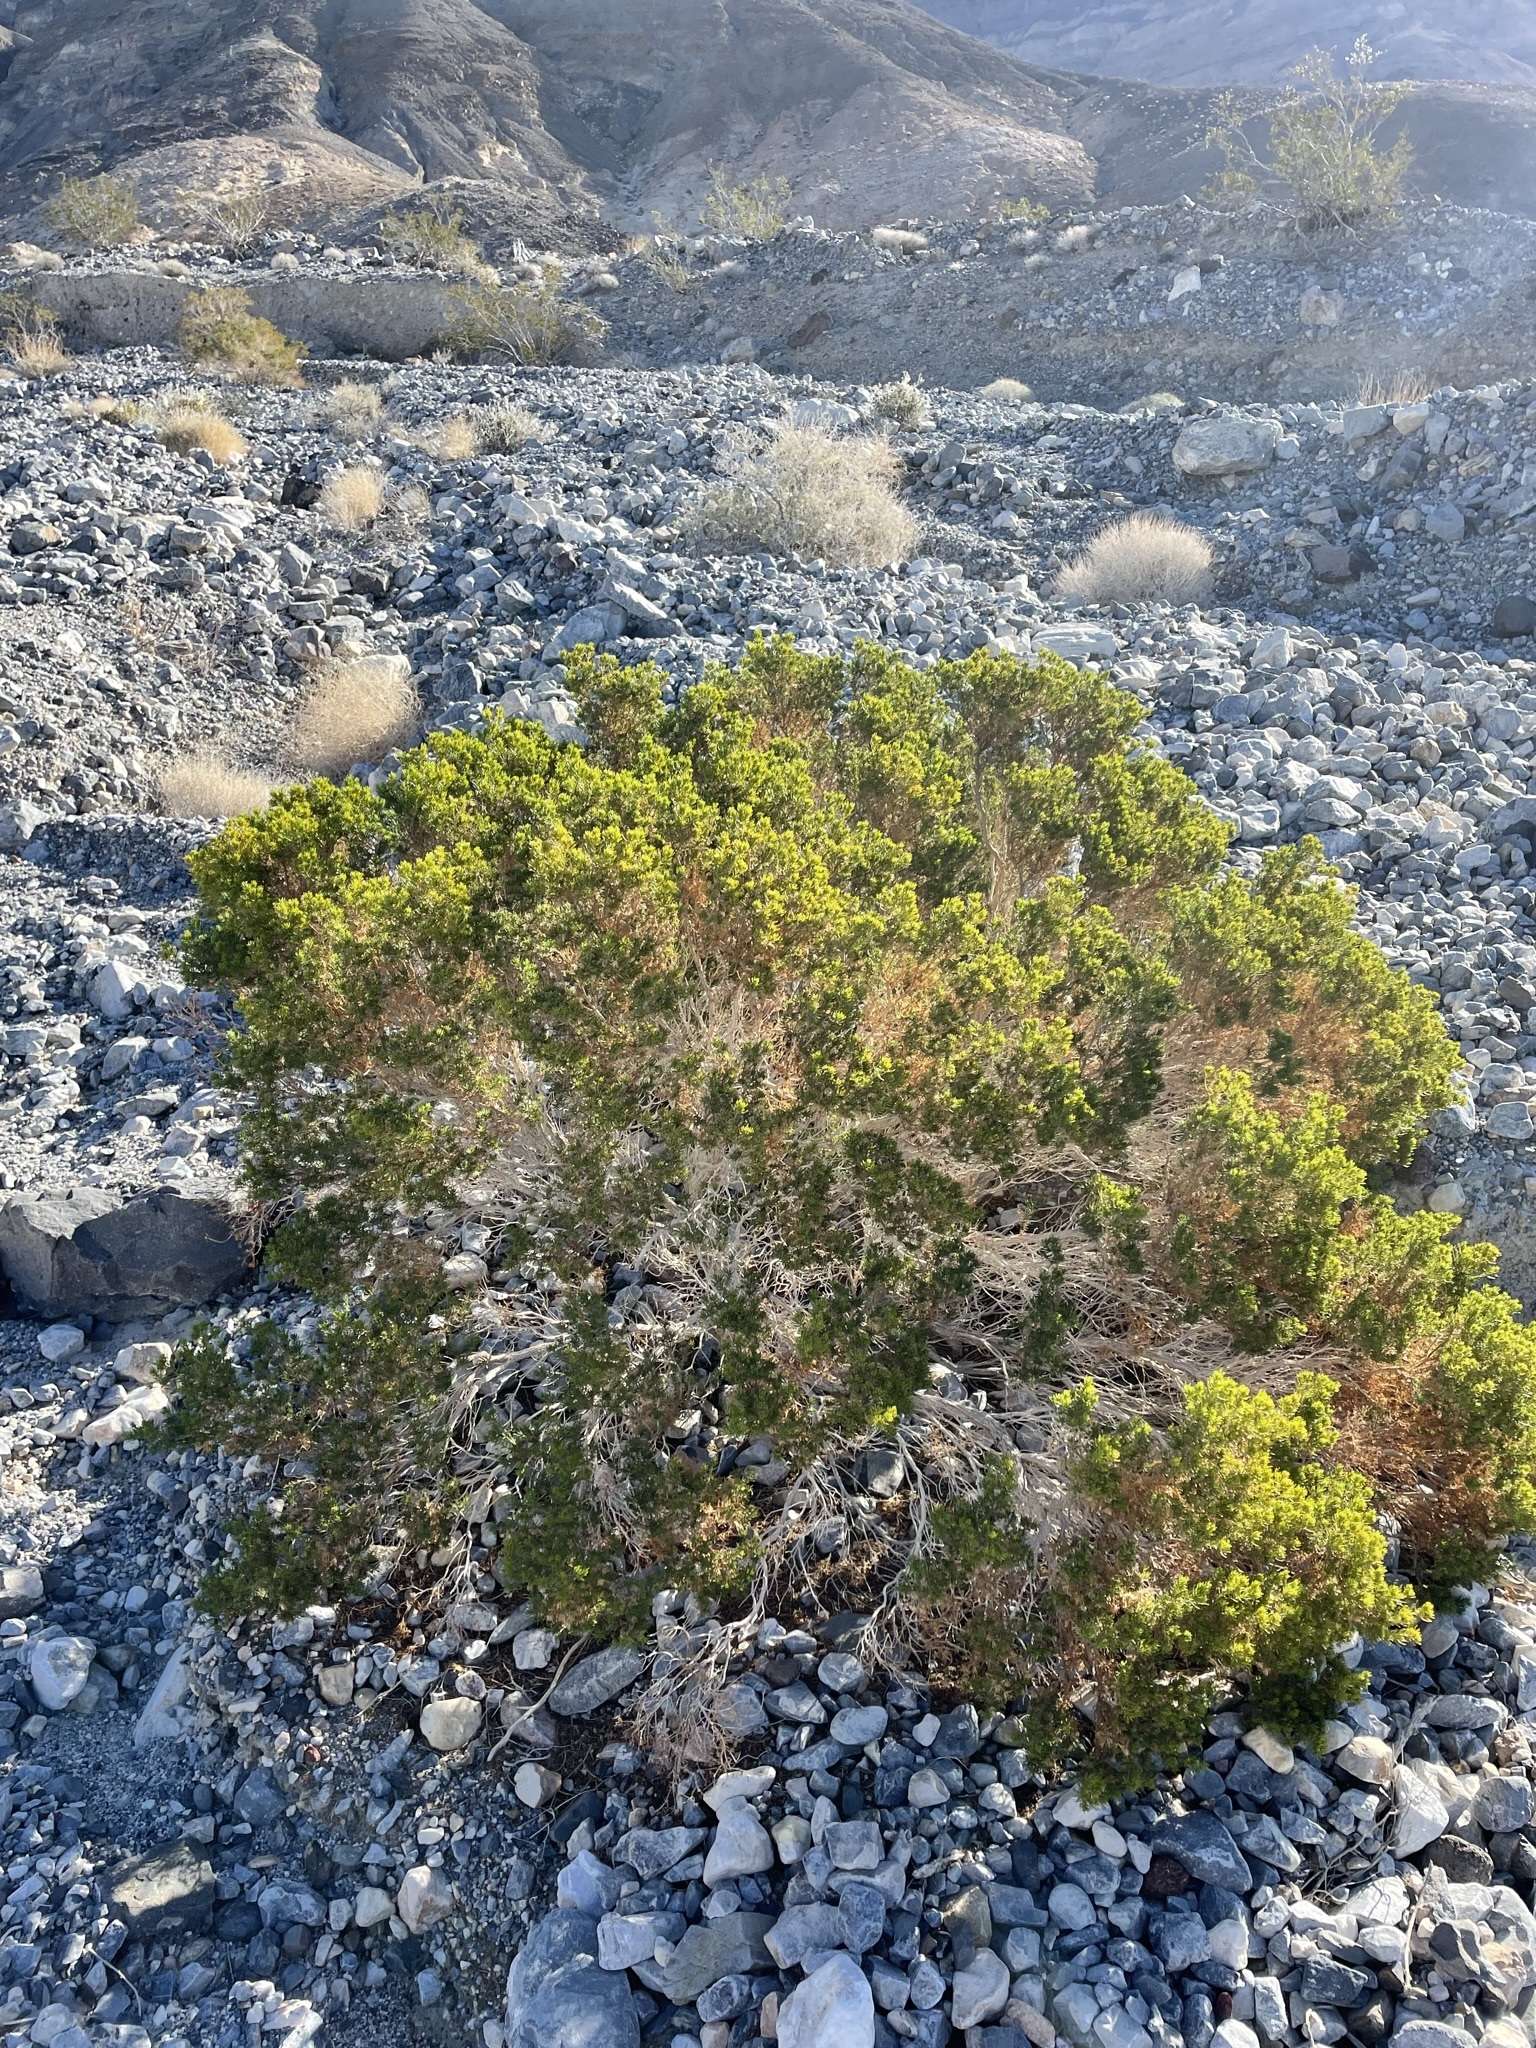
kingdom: Plantae
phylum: Tracheophyta
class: Magnoliopsida
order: Asterales
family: Asteraceae
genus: Peucephyllum
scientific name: Peucephyllum schottii
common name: Pygmy-cedar
